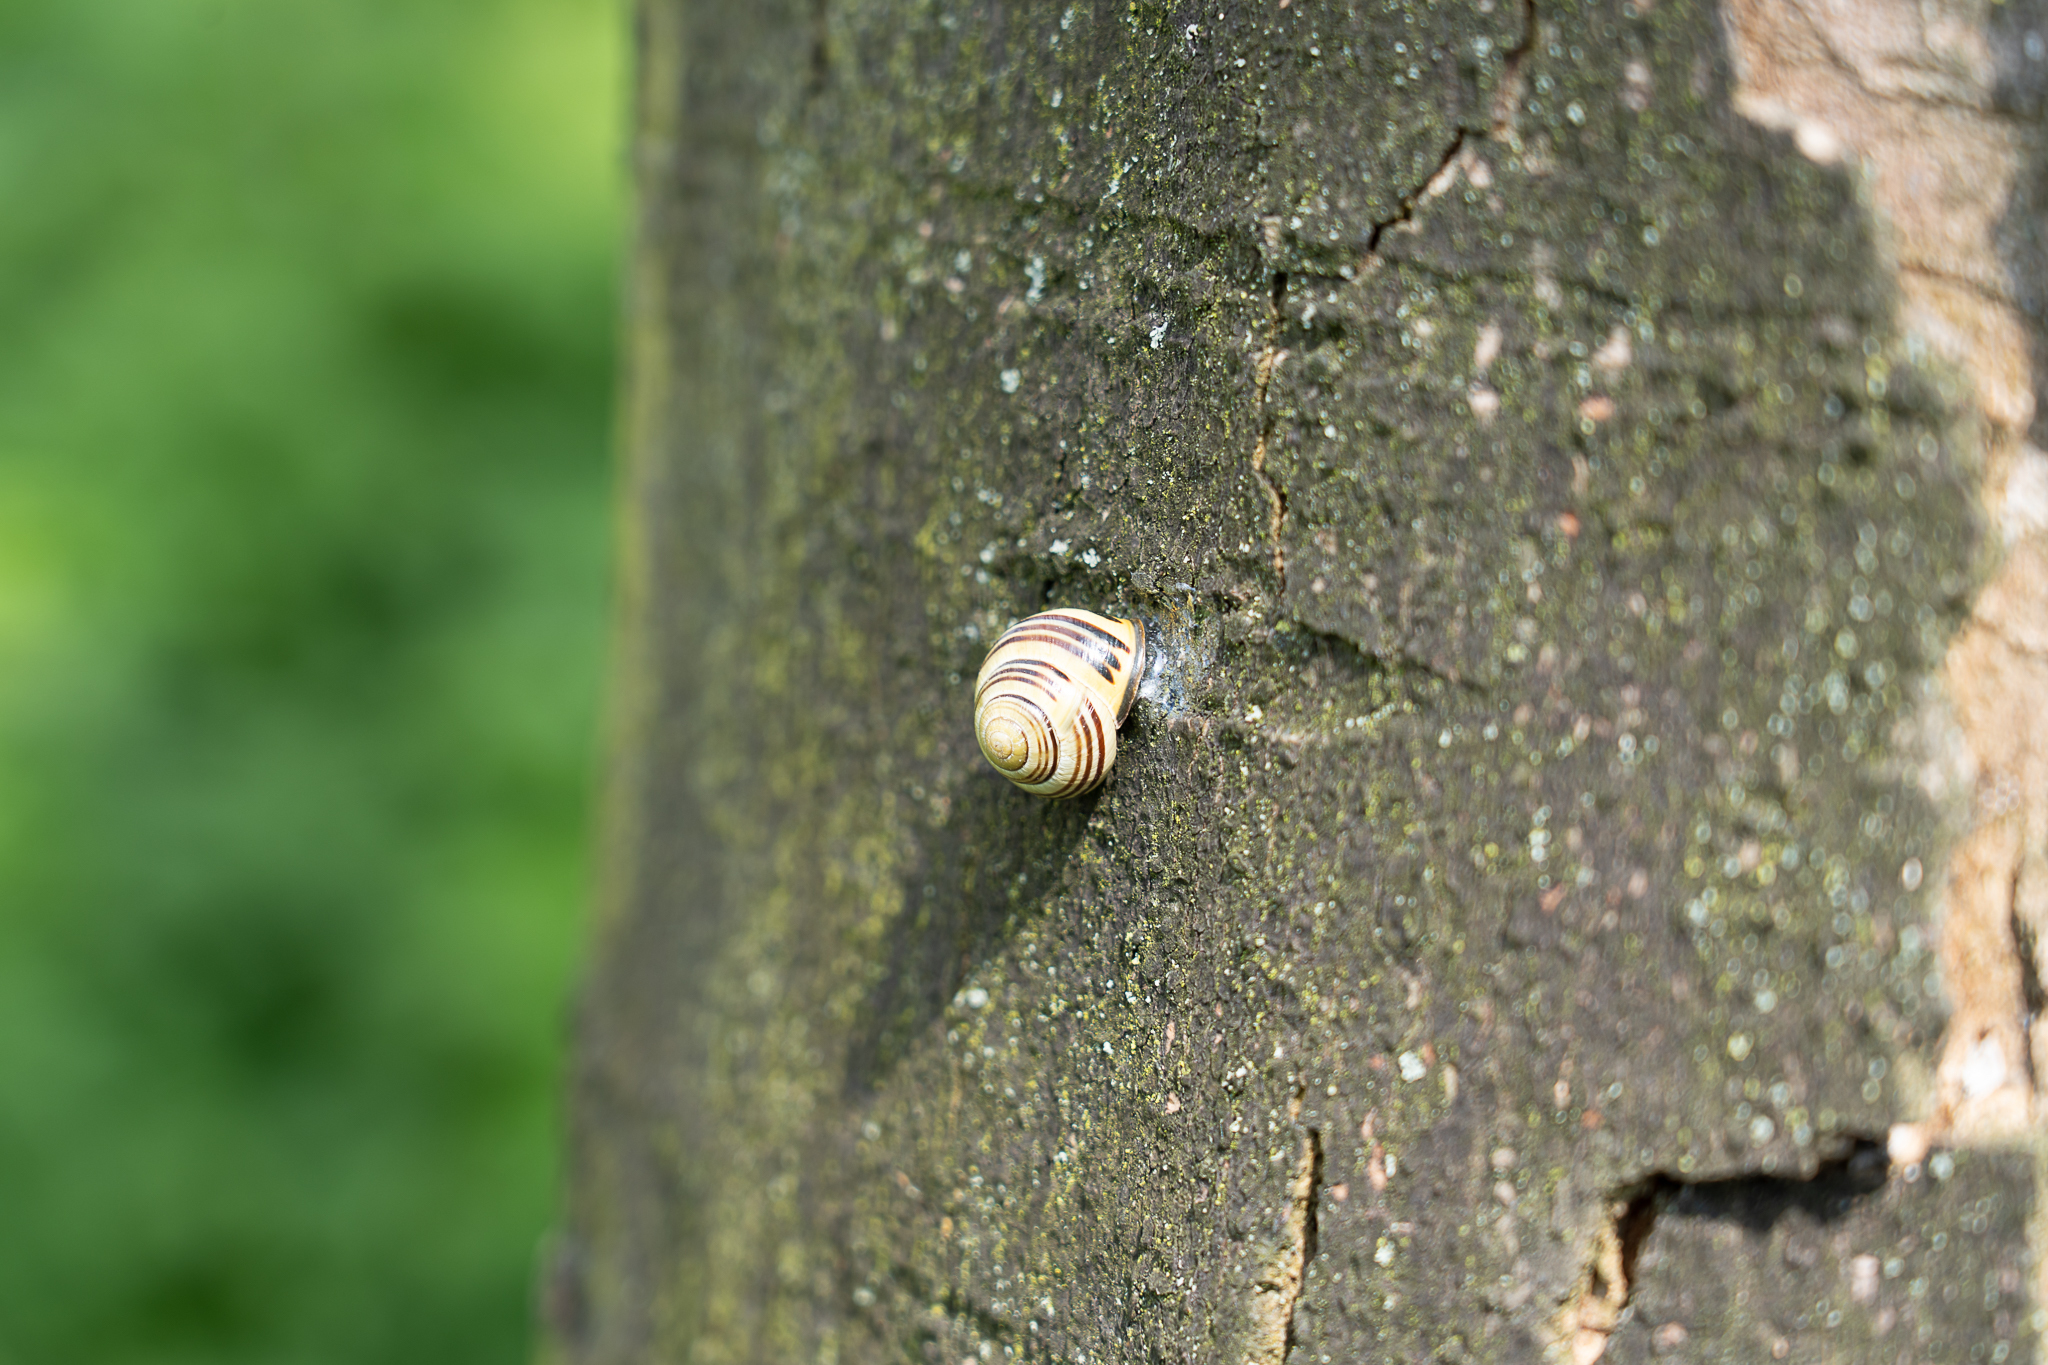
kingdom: Animalia
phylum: Mollusca
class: Gastropoda
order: Stylommatophora
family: Helicidae
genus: Cepaea
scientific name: Cepaea nemoralis
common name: Grovesnail
